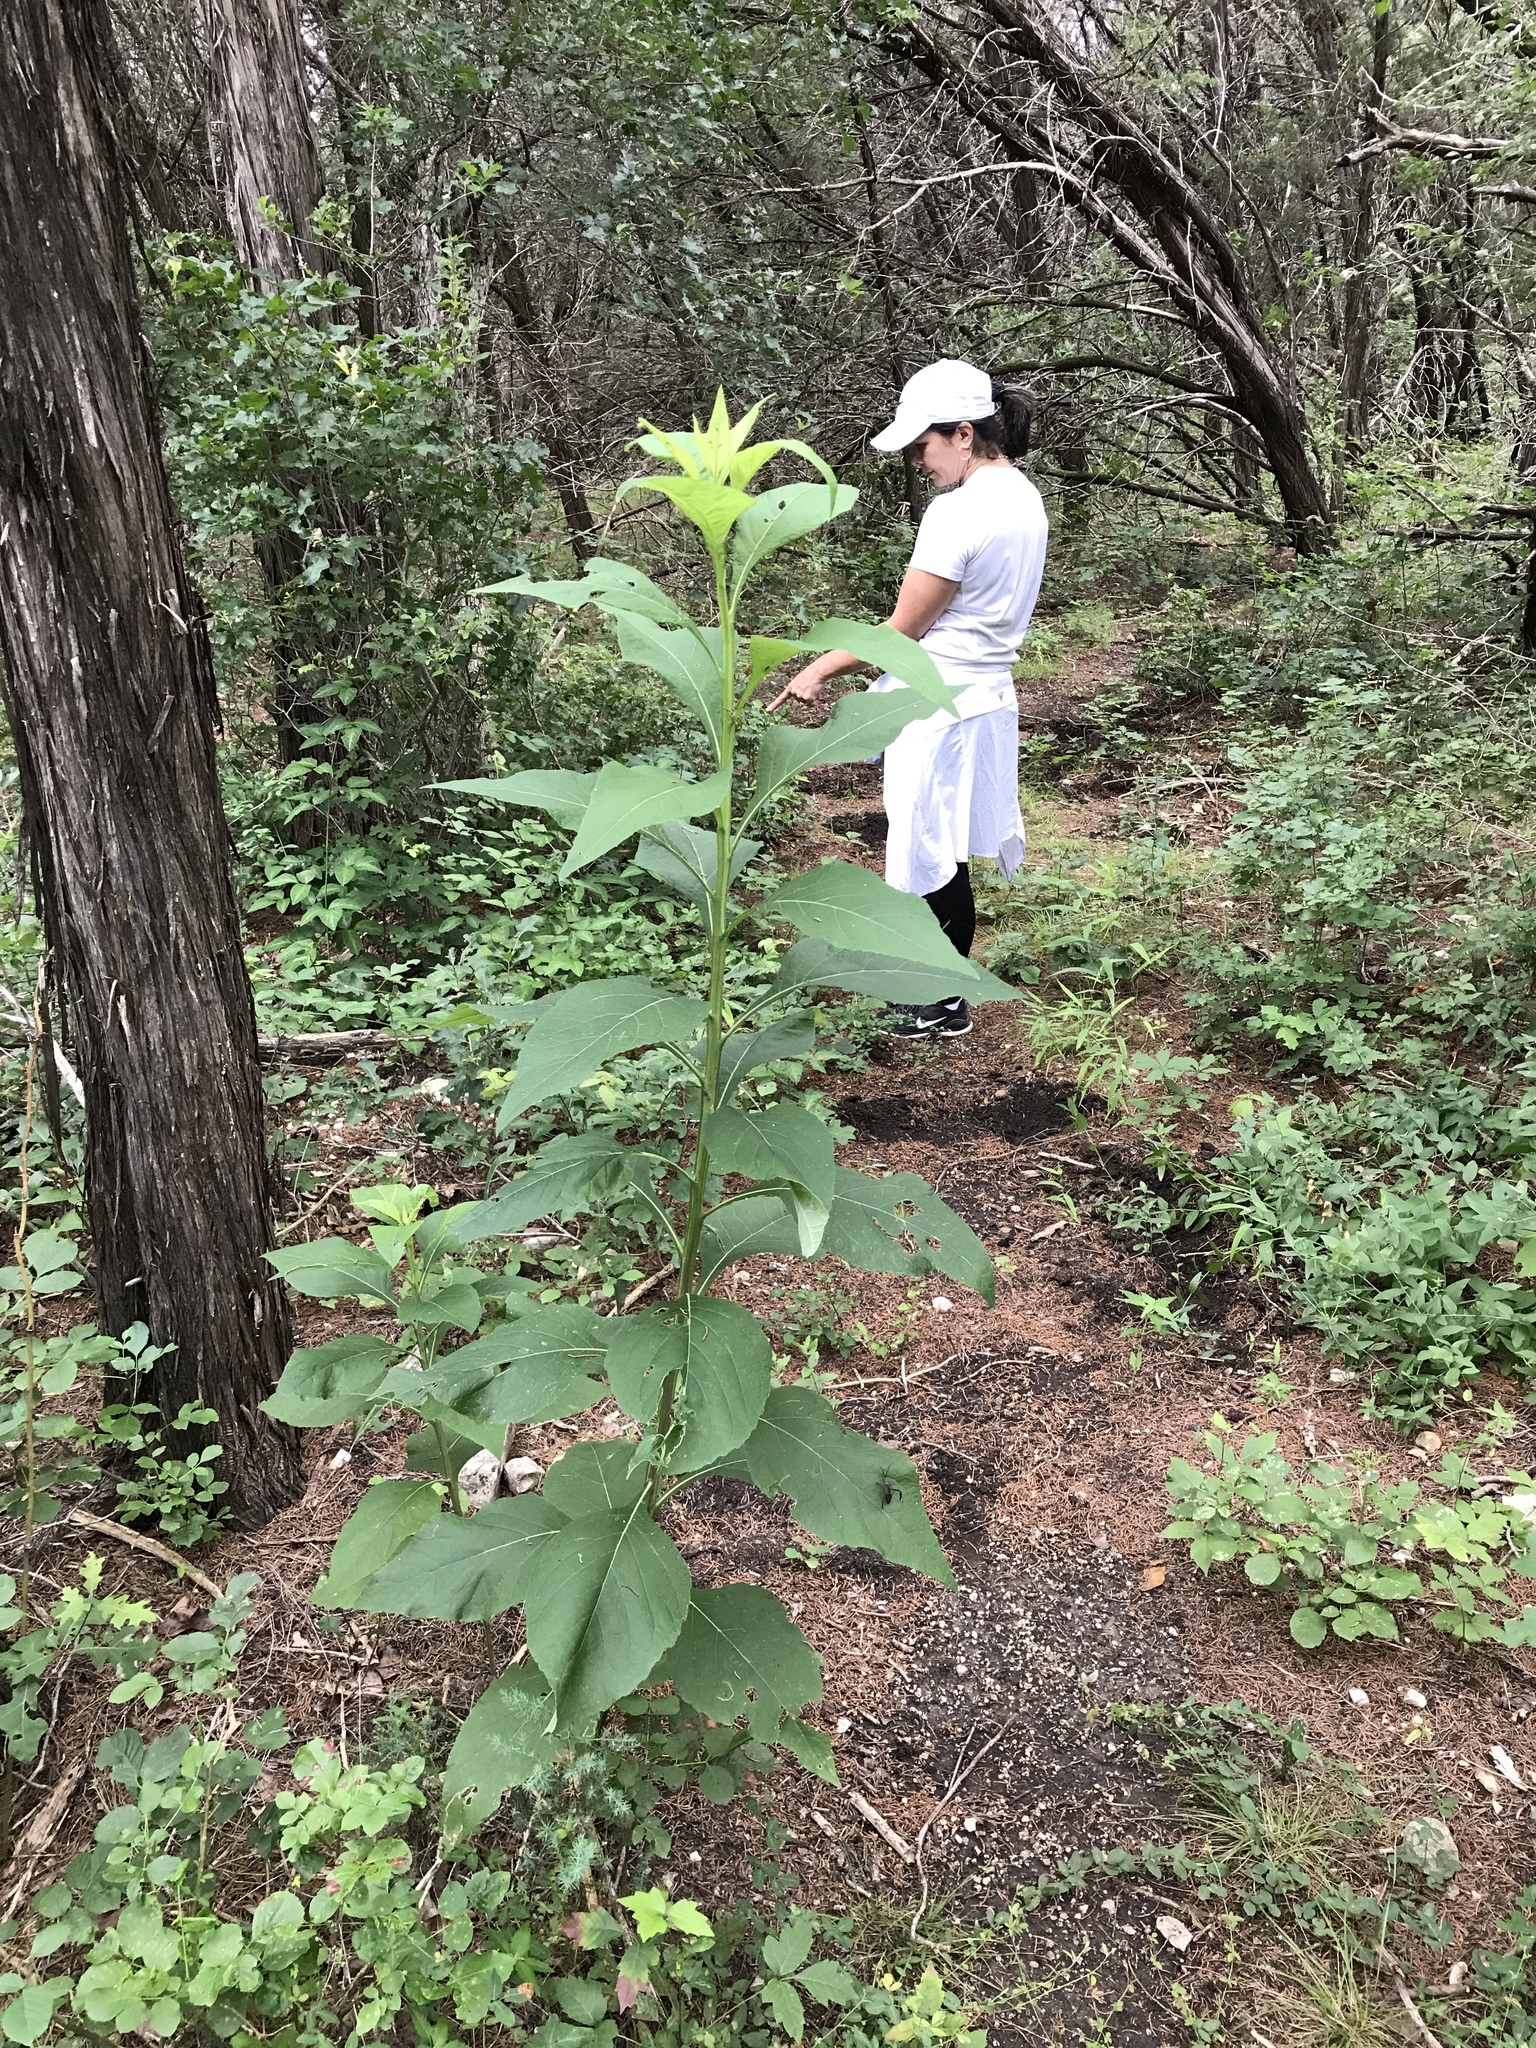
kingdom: Plantae
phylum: Tracheophyta
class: Magnoliopsida
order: Asterales
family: Asteraceae
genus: Verbesina
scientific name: Verbesina virginica
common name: Frostweed
